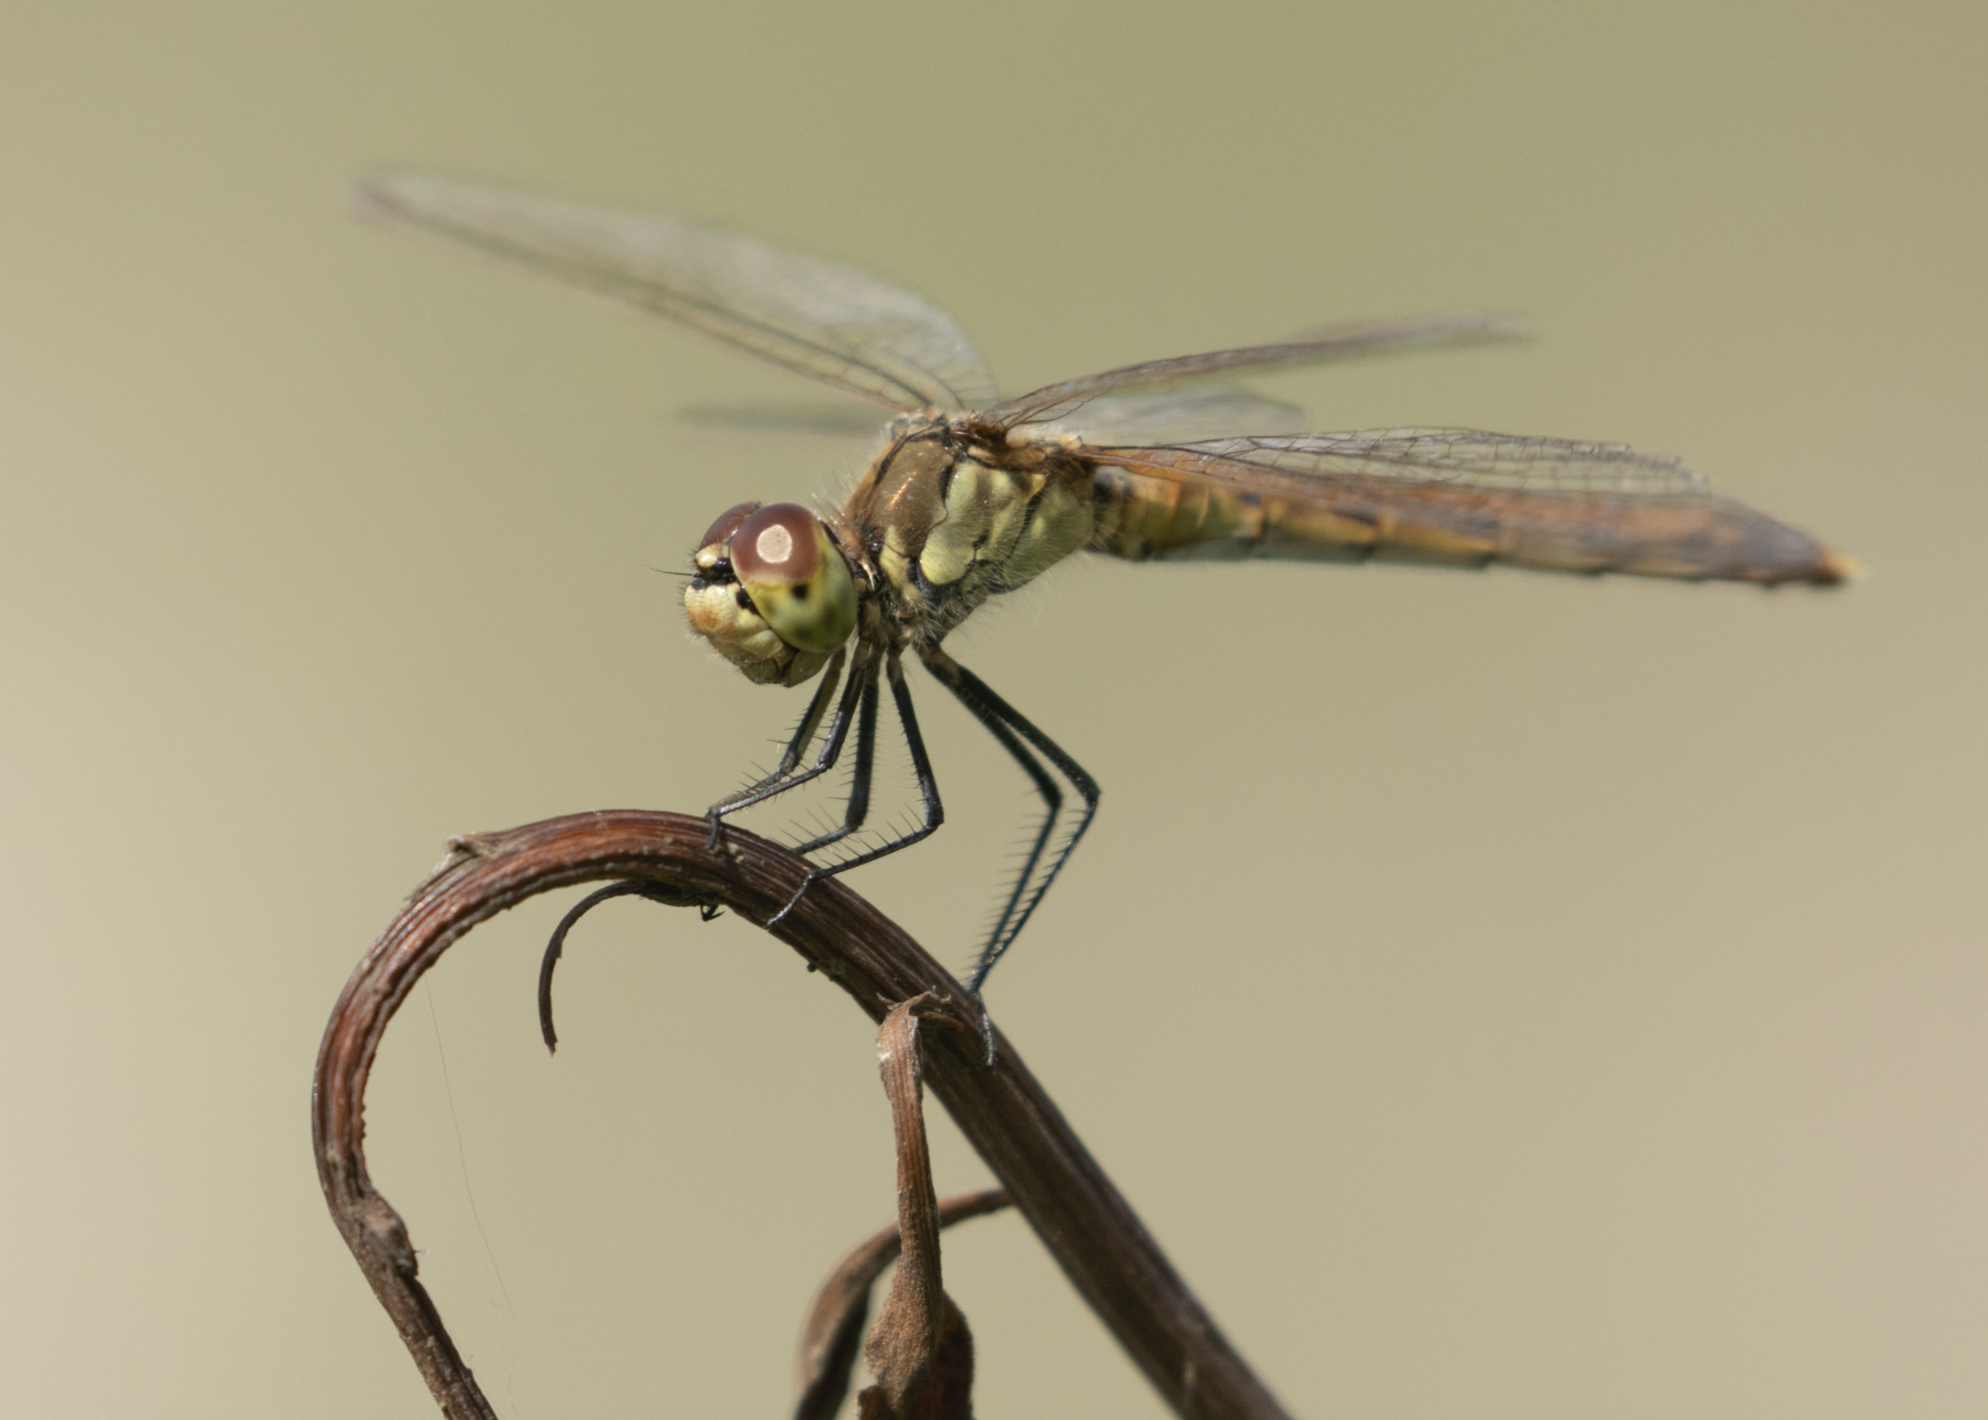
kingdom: Animalia
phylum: Arthropoda
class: Insecta
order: Odonata
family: Libellulidae
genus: Sympetrum
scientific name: Sympetrum depressiusculum
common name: Spotted darter
